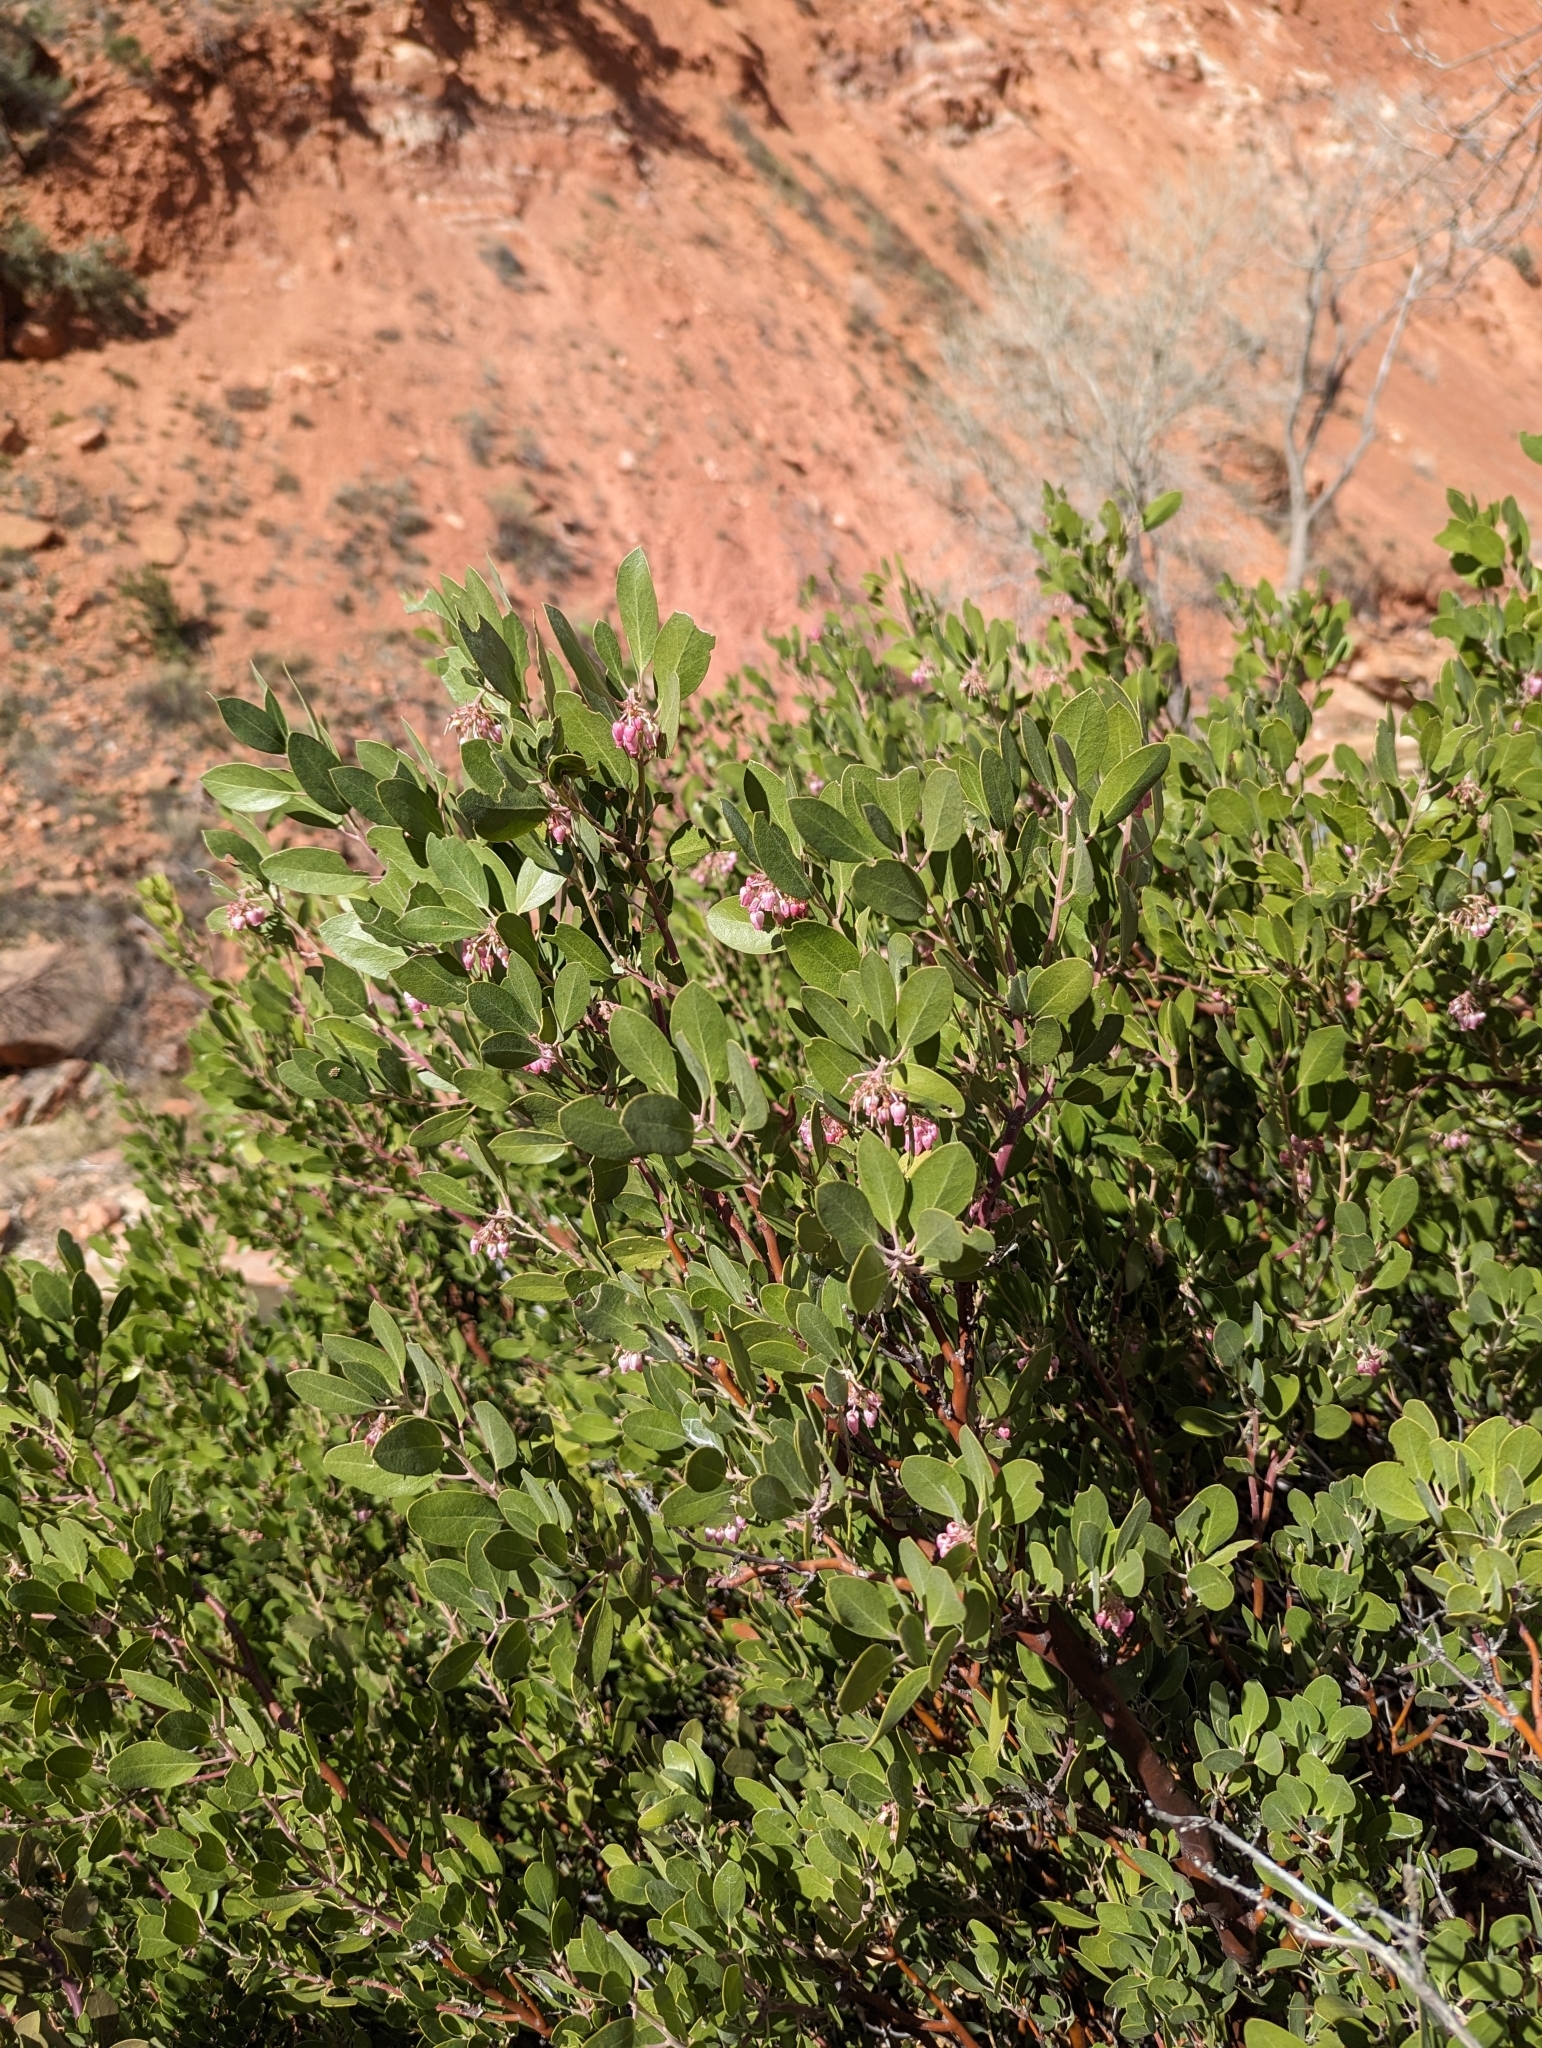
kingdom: Plantae
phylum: Tracheophyta
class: Magnoliopsida
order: Ericales
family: Ericaceae
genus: Arctostaphylos
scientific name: Arctostaphylos pungens
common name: Mexican manzanita
